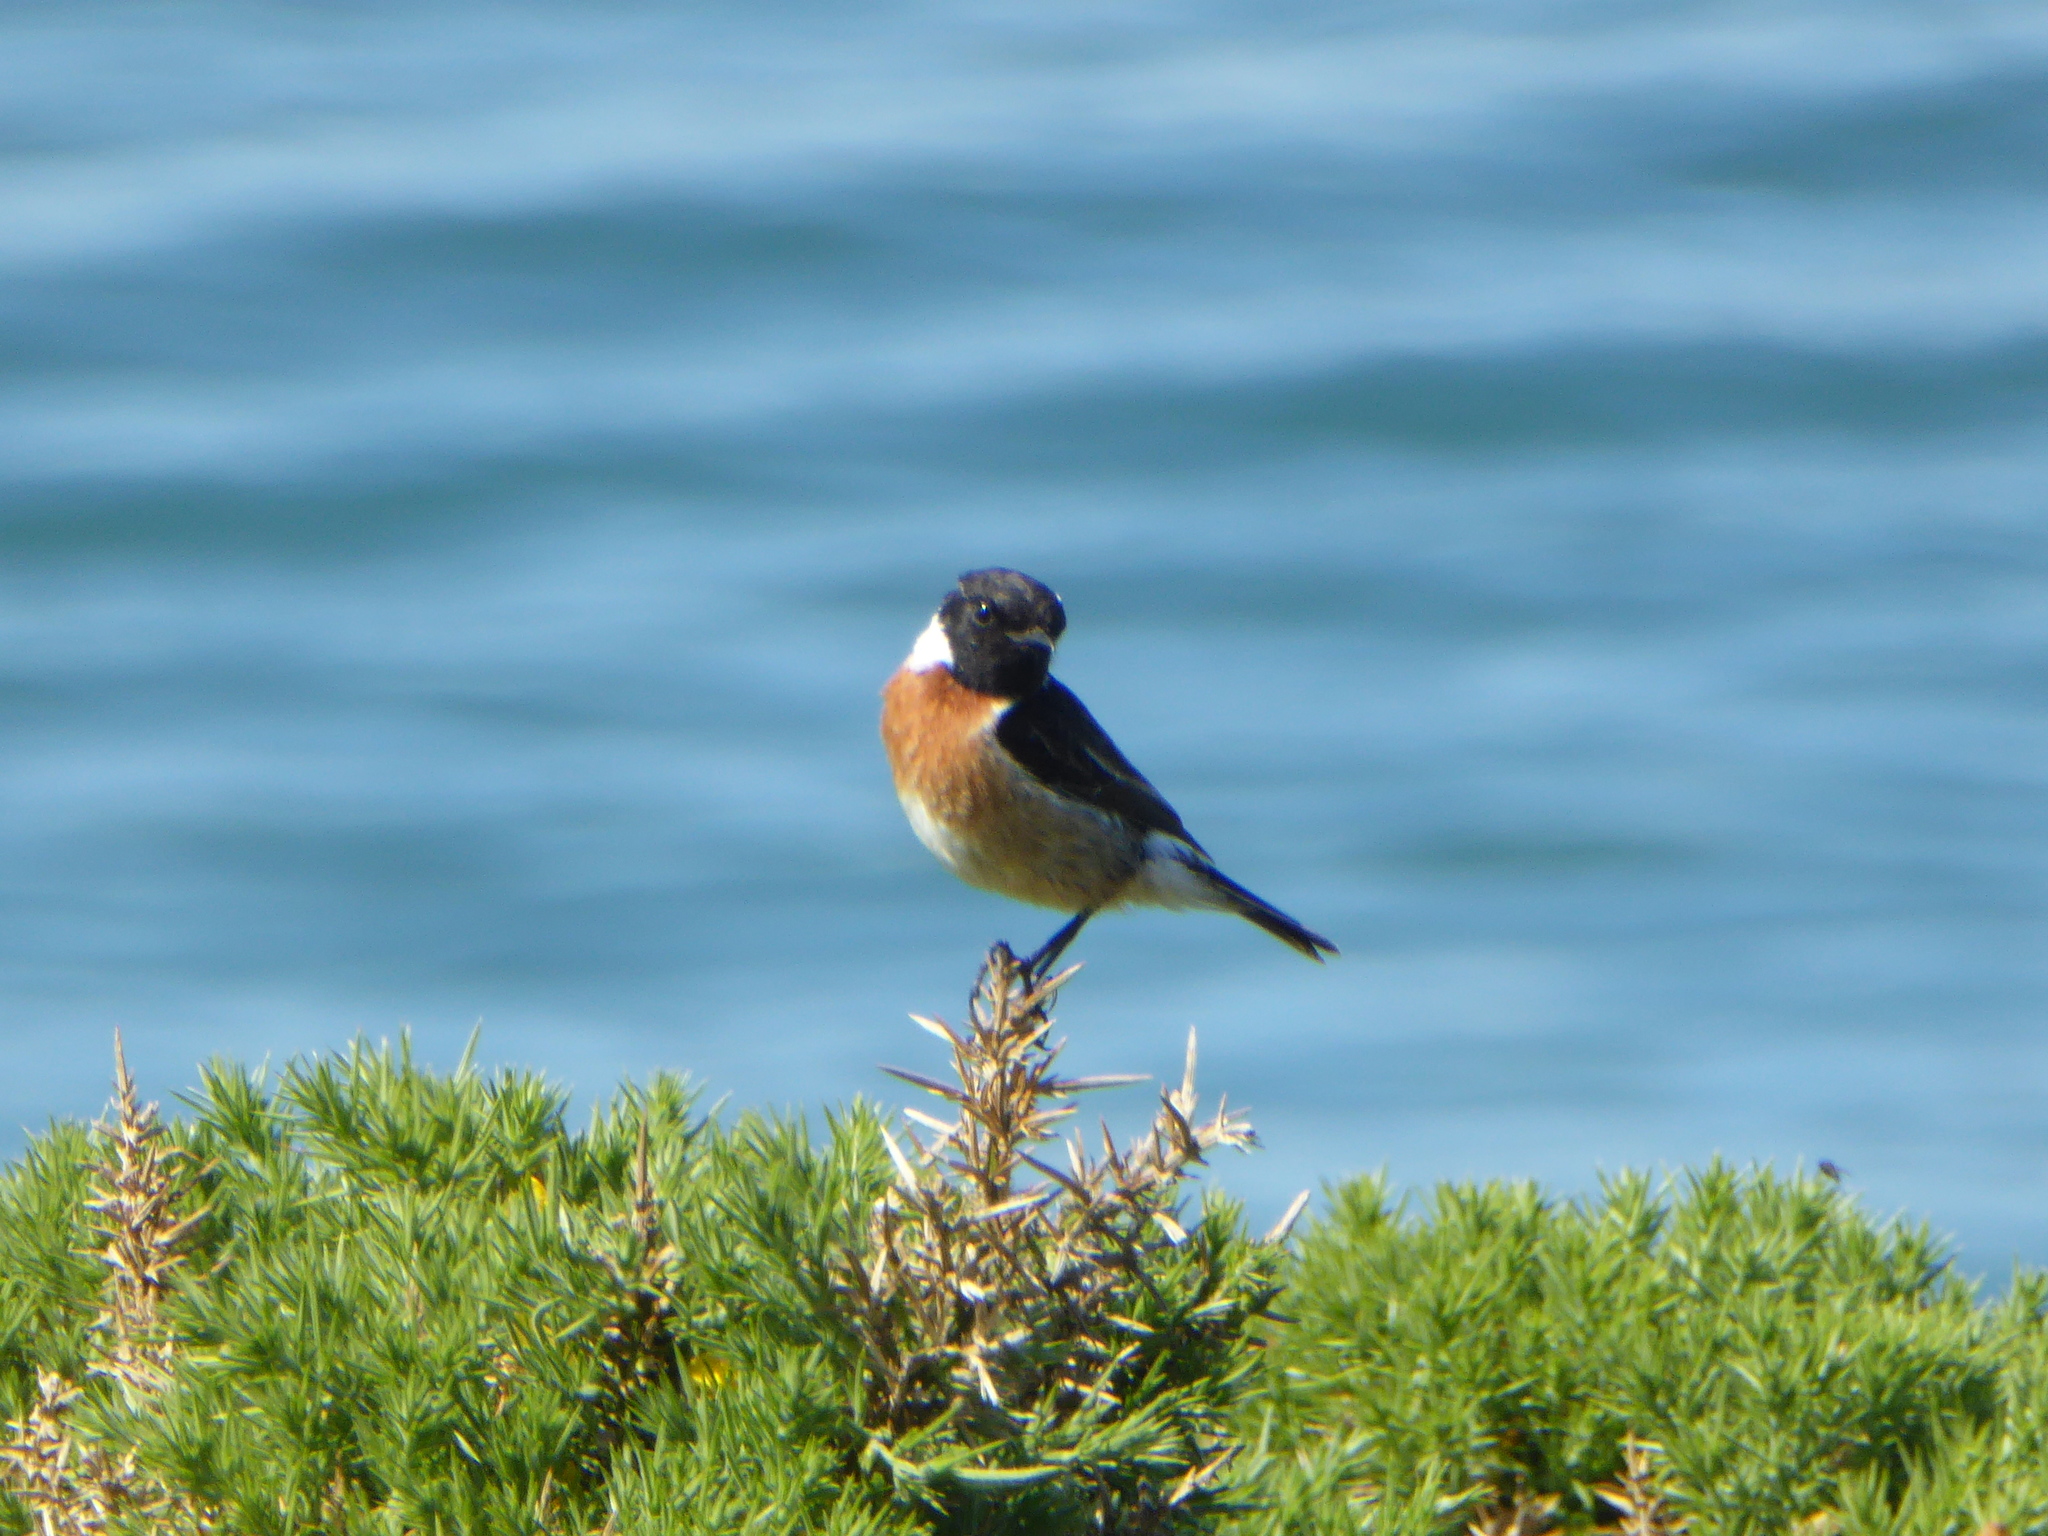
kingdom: Animalia
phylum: Chordata
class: Aves
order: Passeriformes
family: Muscicapidae
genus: Saxicola
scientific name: Saxicola rubicola
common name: European stonechat
